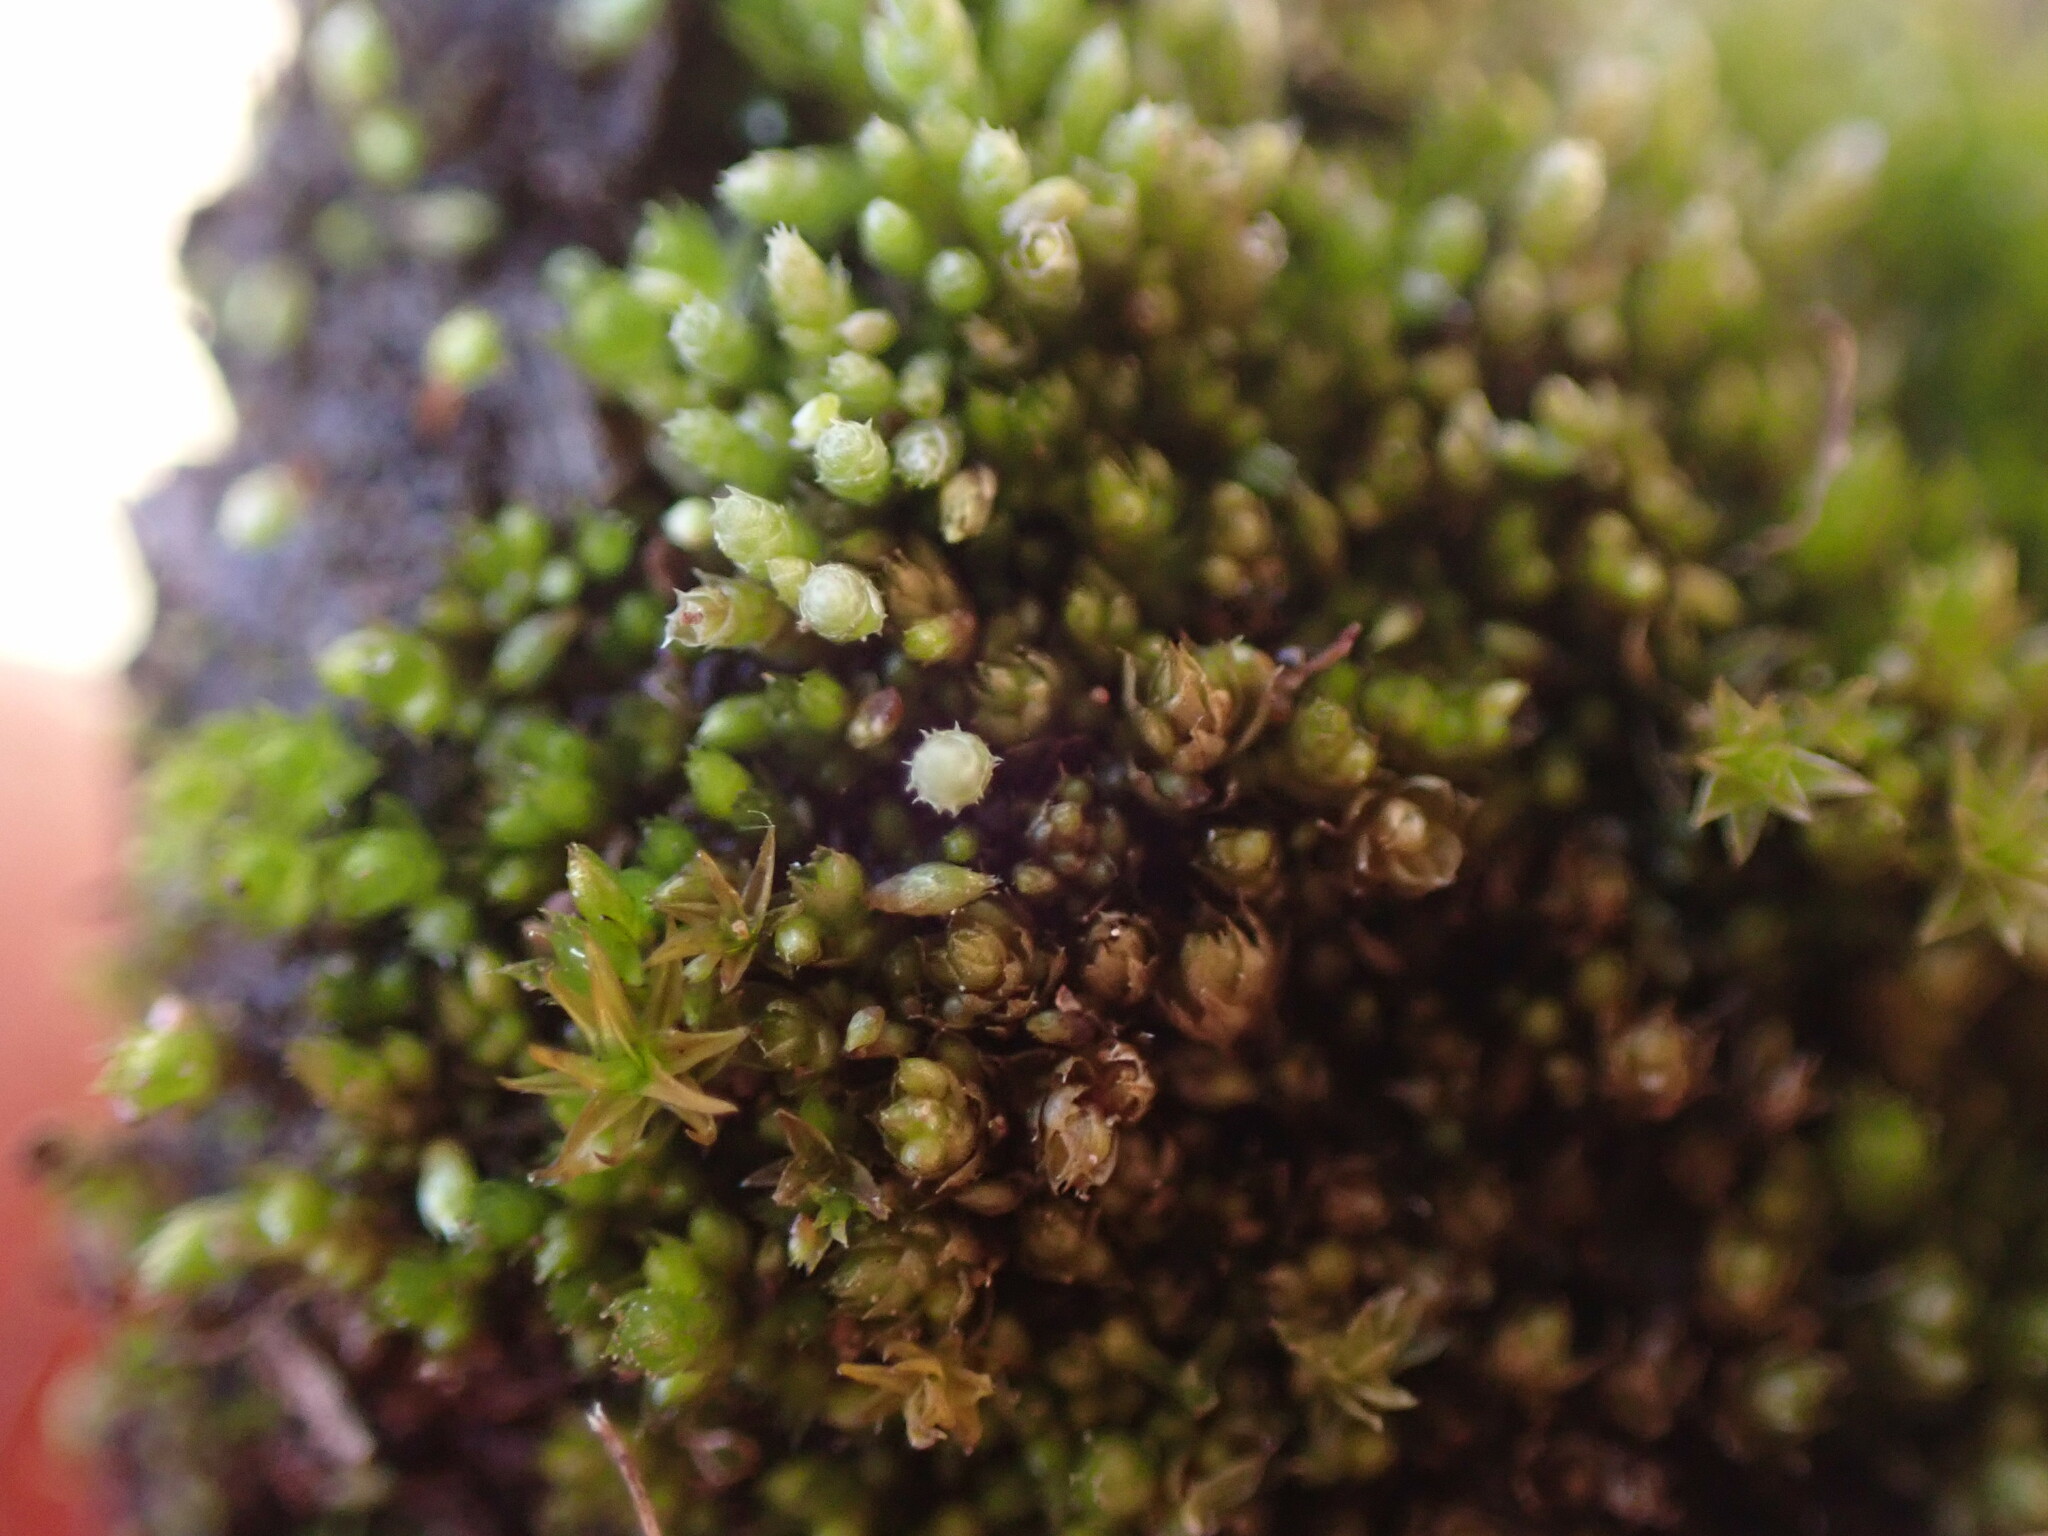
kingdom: Plantae
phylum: Bryophyta
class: Bryopsida
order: Bryales
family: Bryaceae
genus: Bryum
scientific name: Bryum argenteum
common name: Silver-moss
